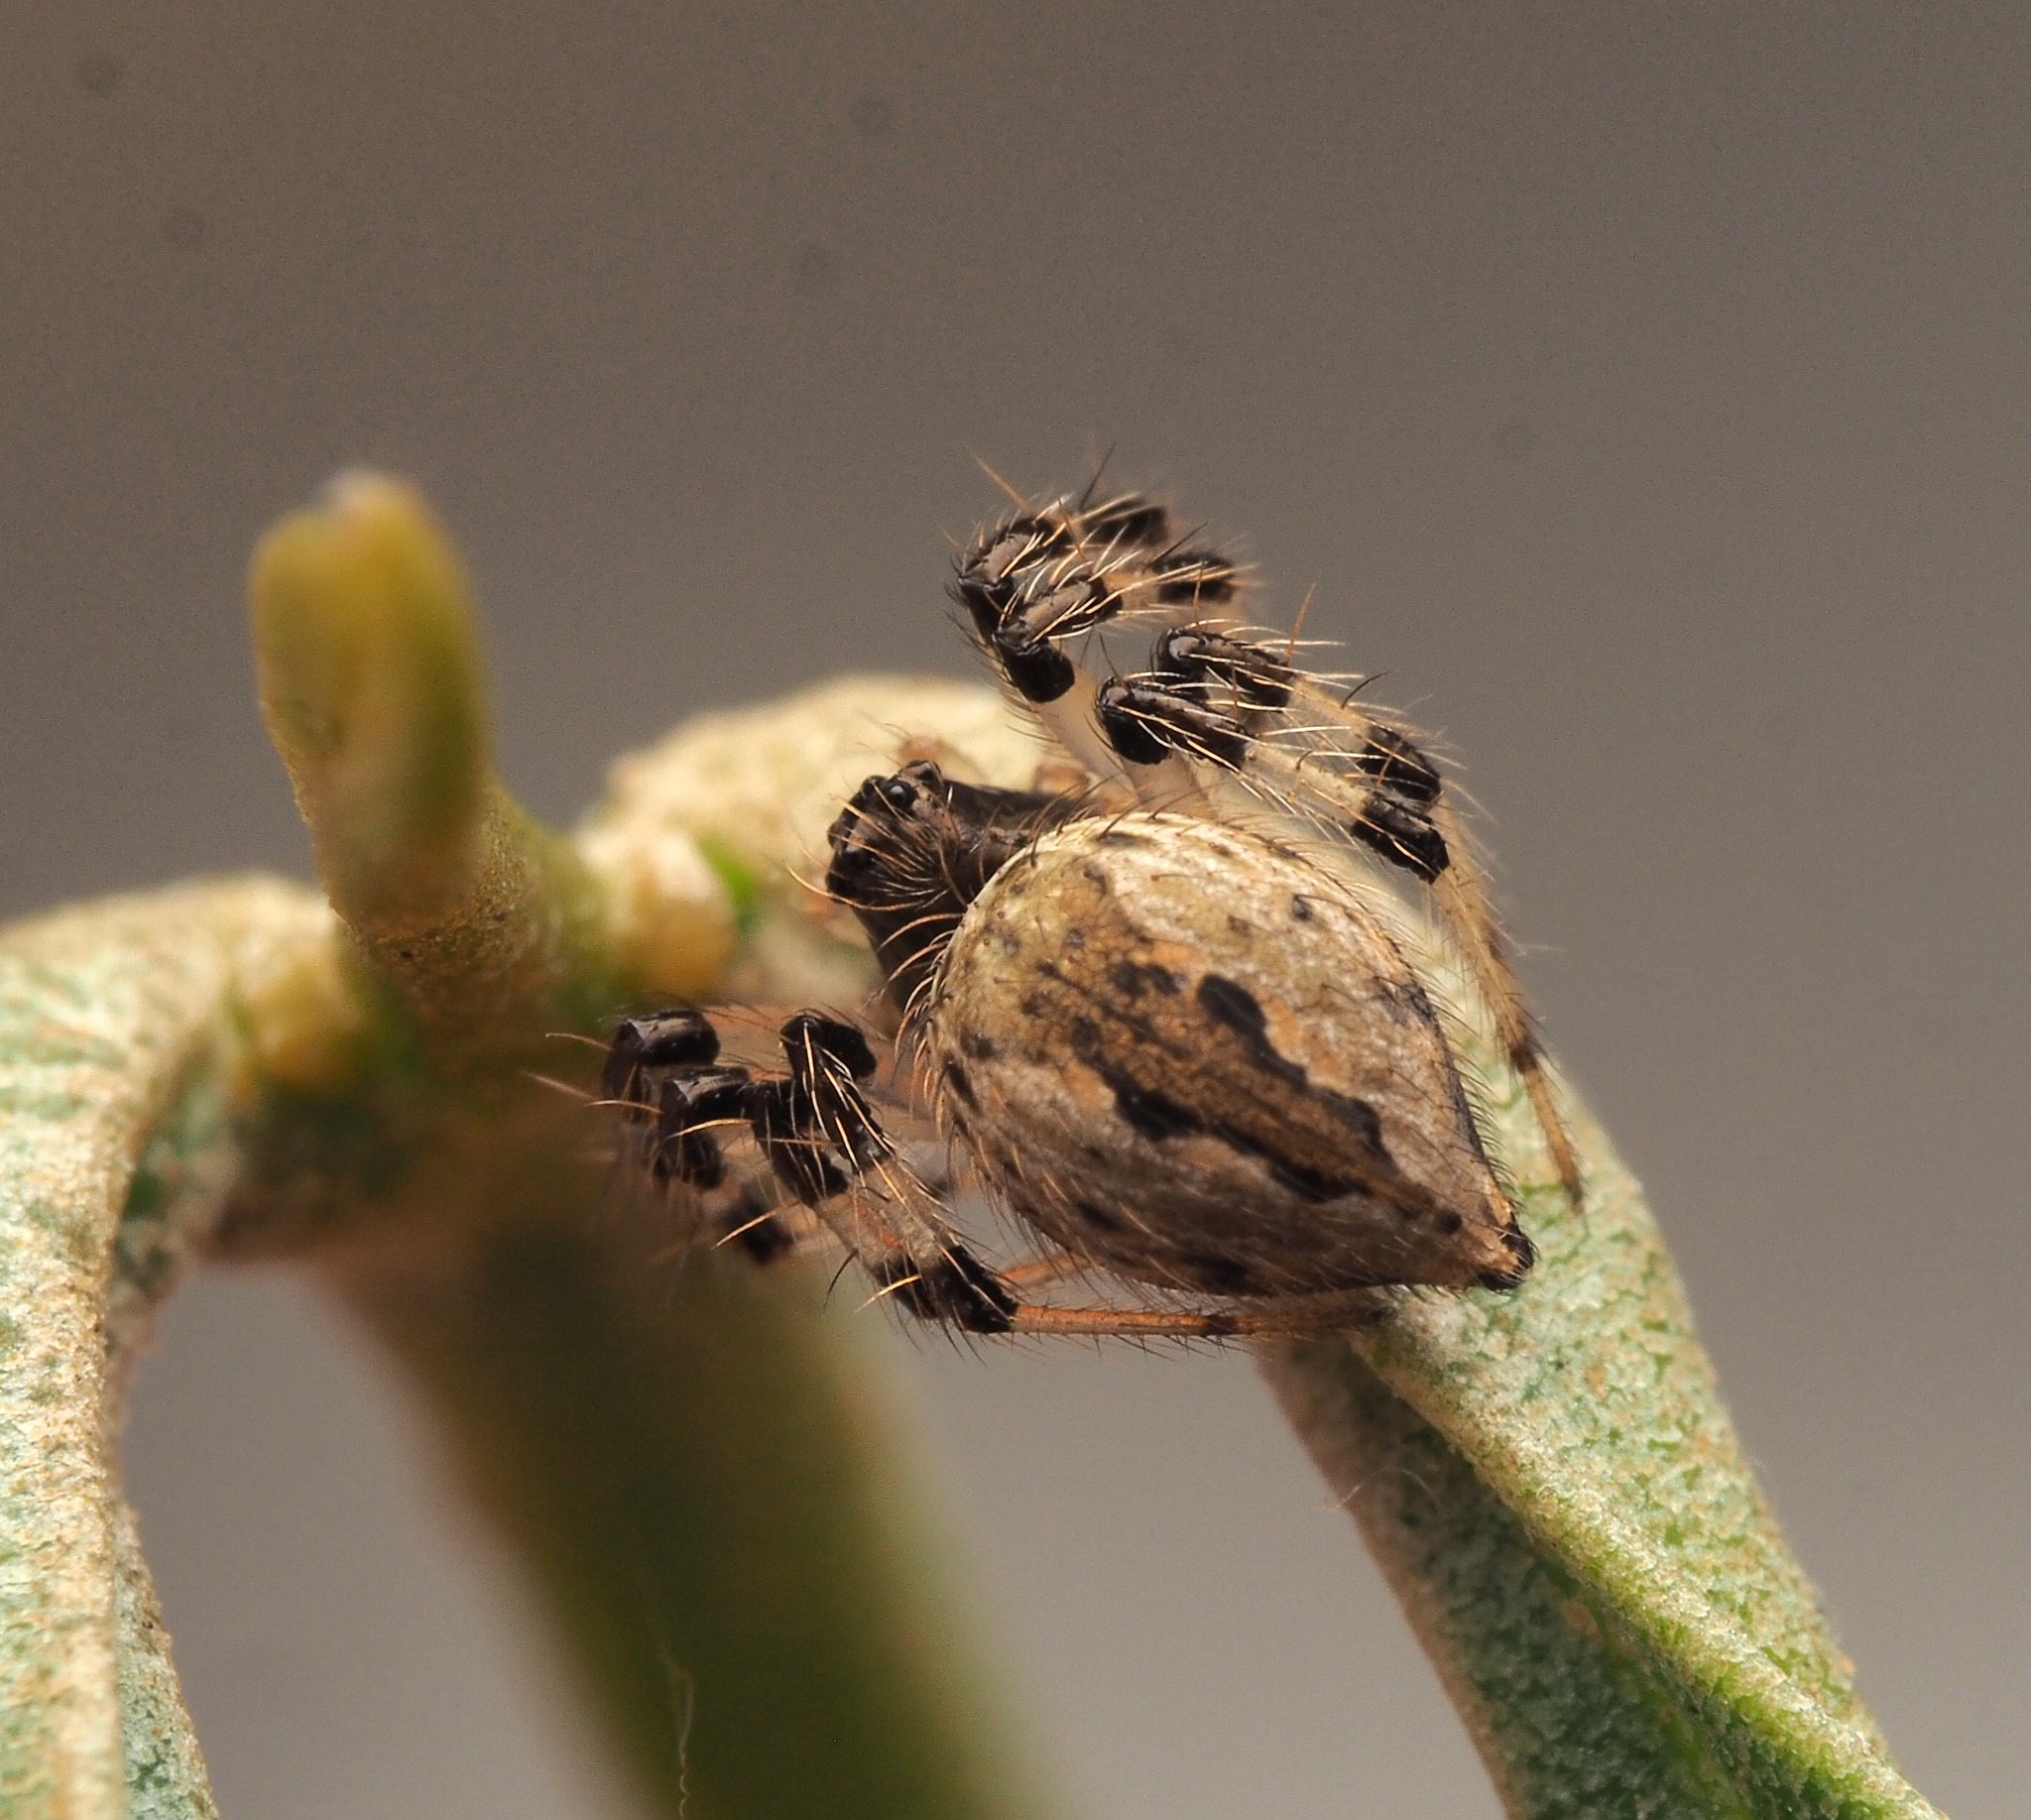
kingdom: Animalia
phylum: Arthropoda
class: Arachnida
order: Araneae
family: Theridiidae
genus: Euryopis
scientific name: Euryopis
